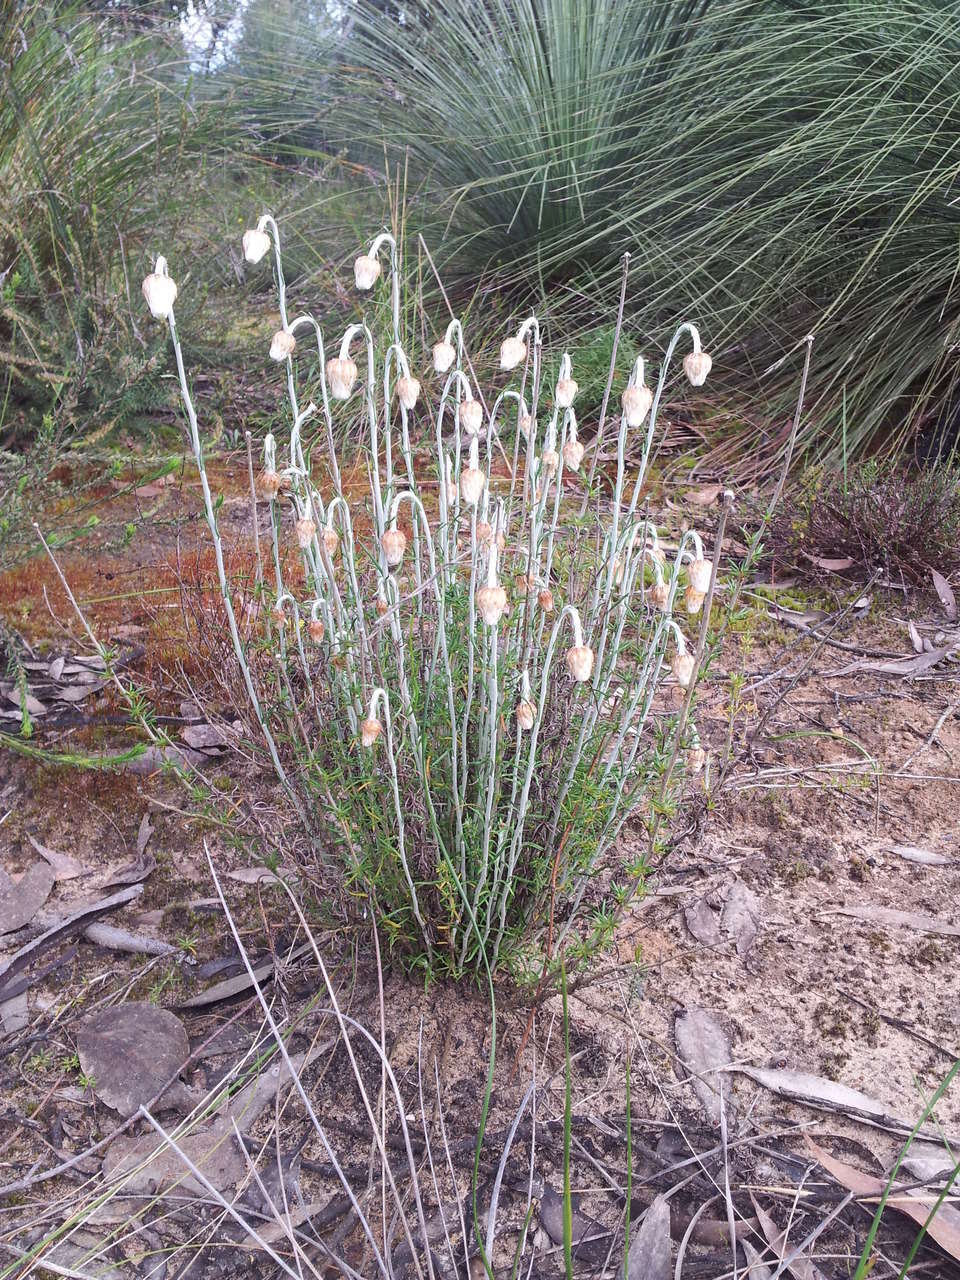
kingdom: Plantae
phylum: Tracheophyta
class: Magnoliopsida
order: Asterales
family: Asteraceae
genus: Chrysocephalum
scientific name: Chrysocephalum baxteri
